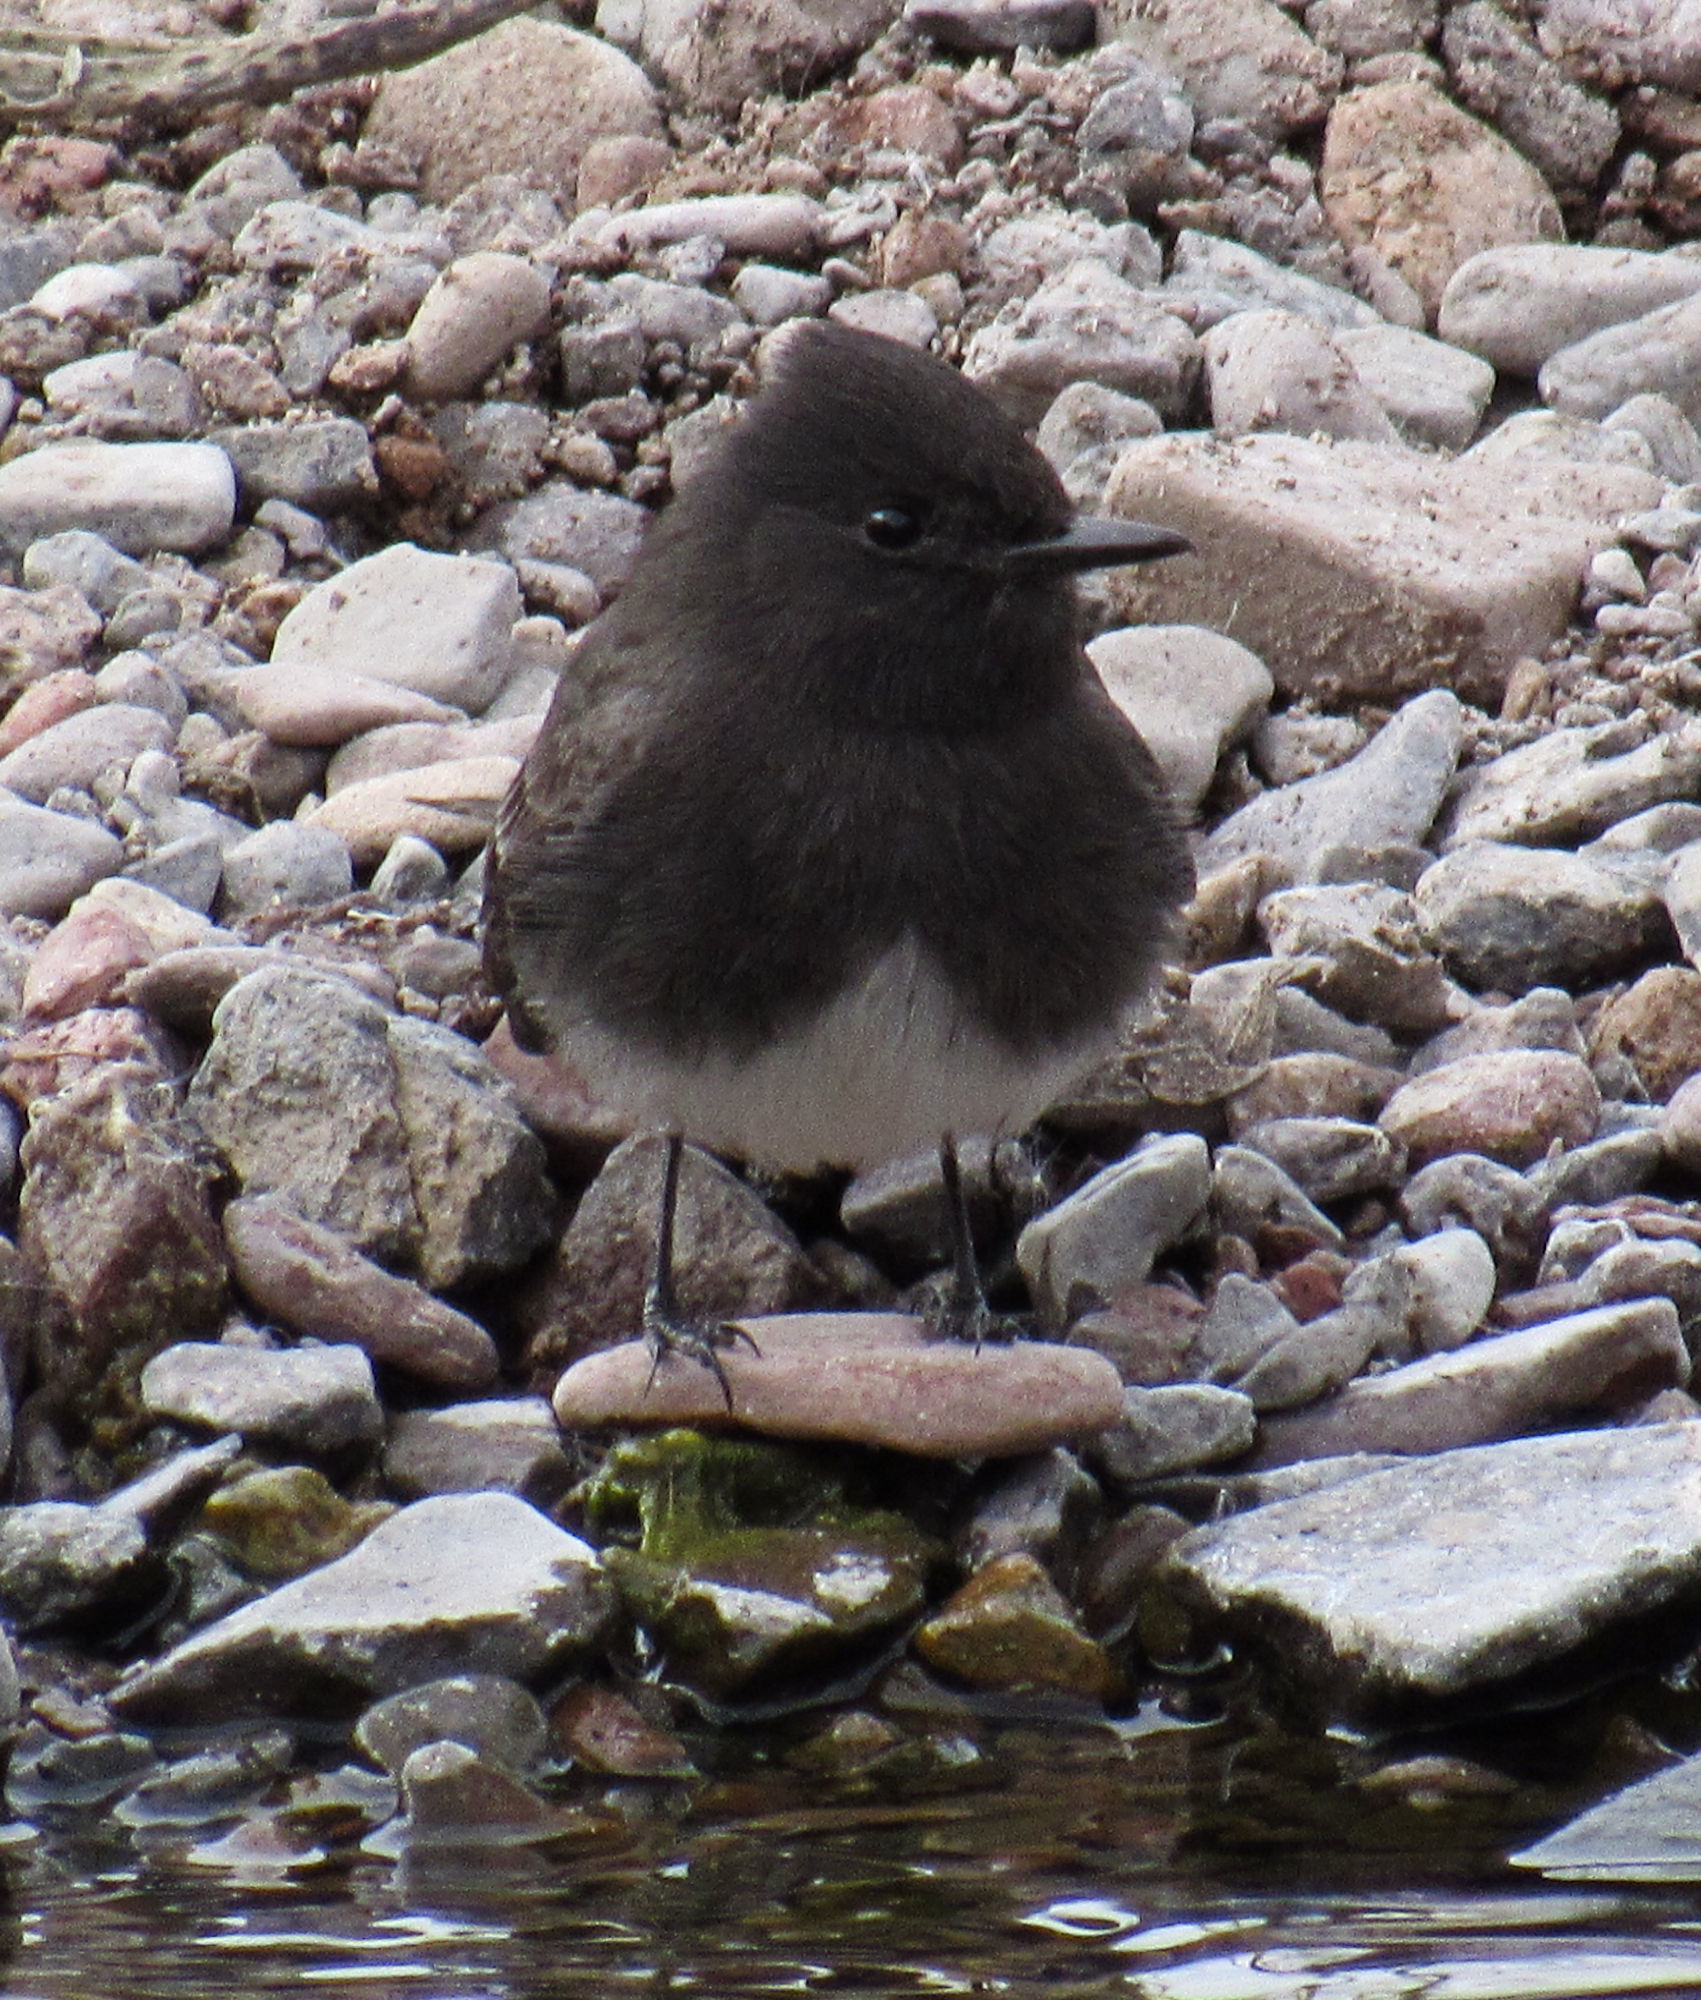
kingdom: Animalia
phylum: Chordata
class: Aves
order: Passeriformes
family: Tyrannidae
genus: Sayornis
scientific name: Sayornis nigricans
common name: Black phoebe
